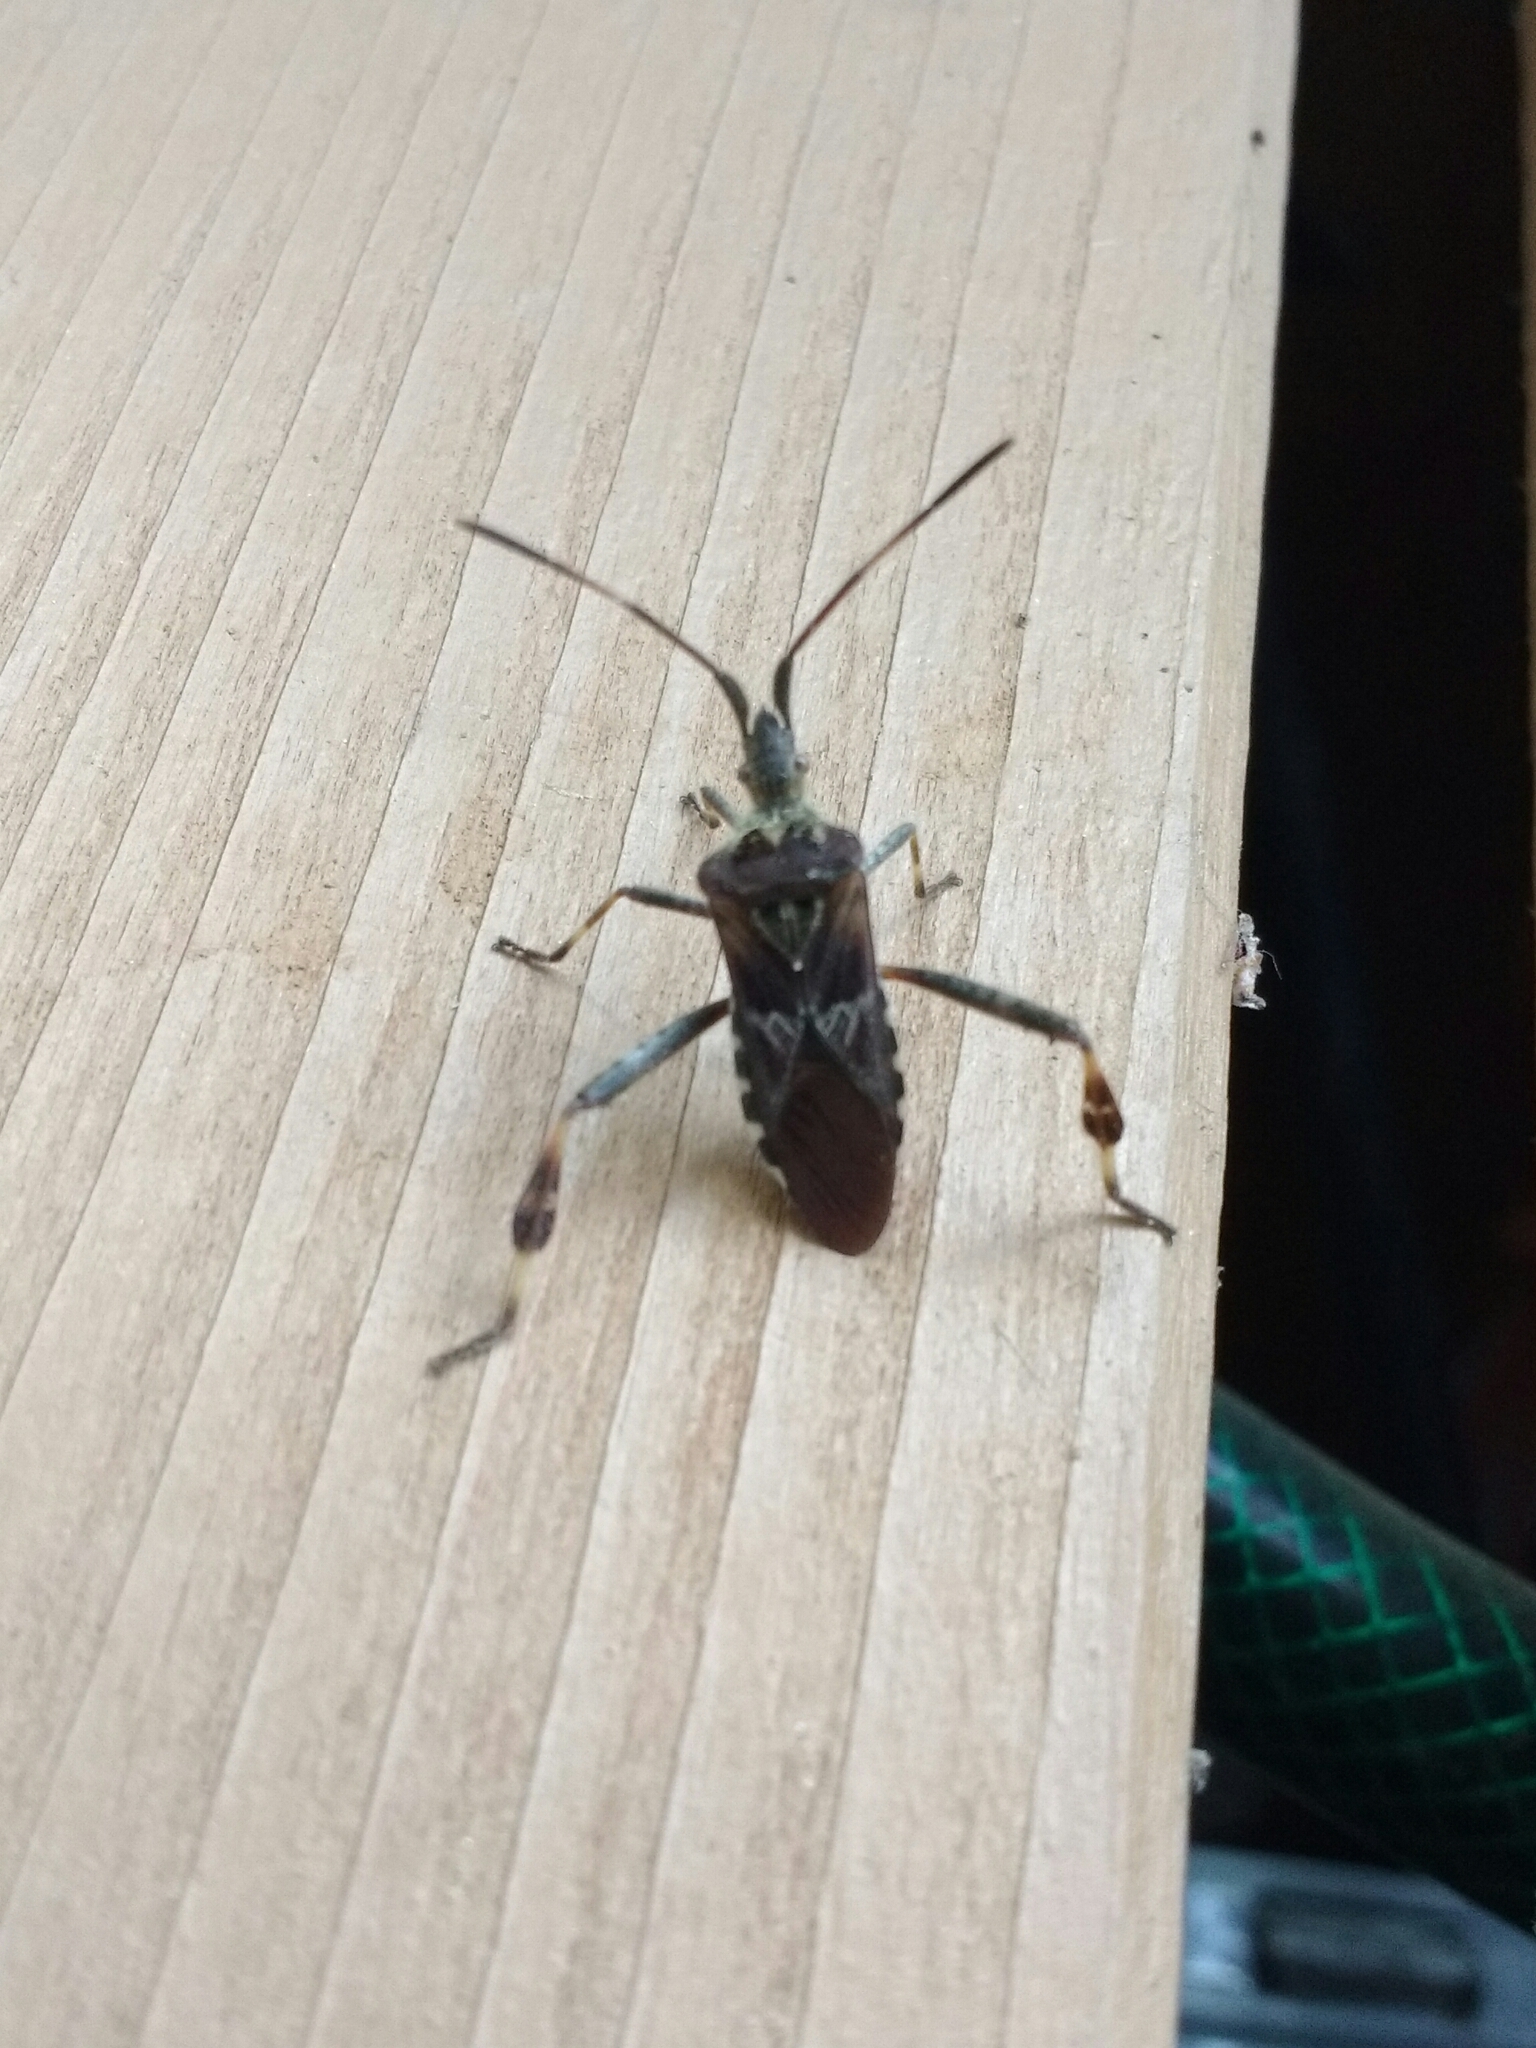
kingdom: Animalia
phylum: Arthropoda
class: Insecta
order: Hemiptera
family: Coreidae
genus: Leptoglossus
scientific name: Leptoglossus occidentalis
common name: Western conifer-seed bug
